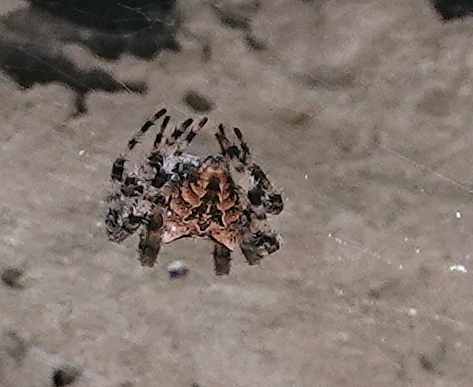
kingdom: Animalia
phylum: Arthropoda
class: Arachnida
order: Araneae
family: Araneidae
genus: Araneus
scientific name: Araneus gemmoides
